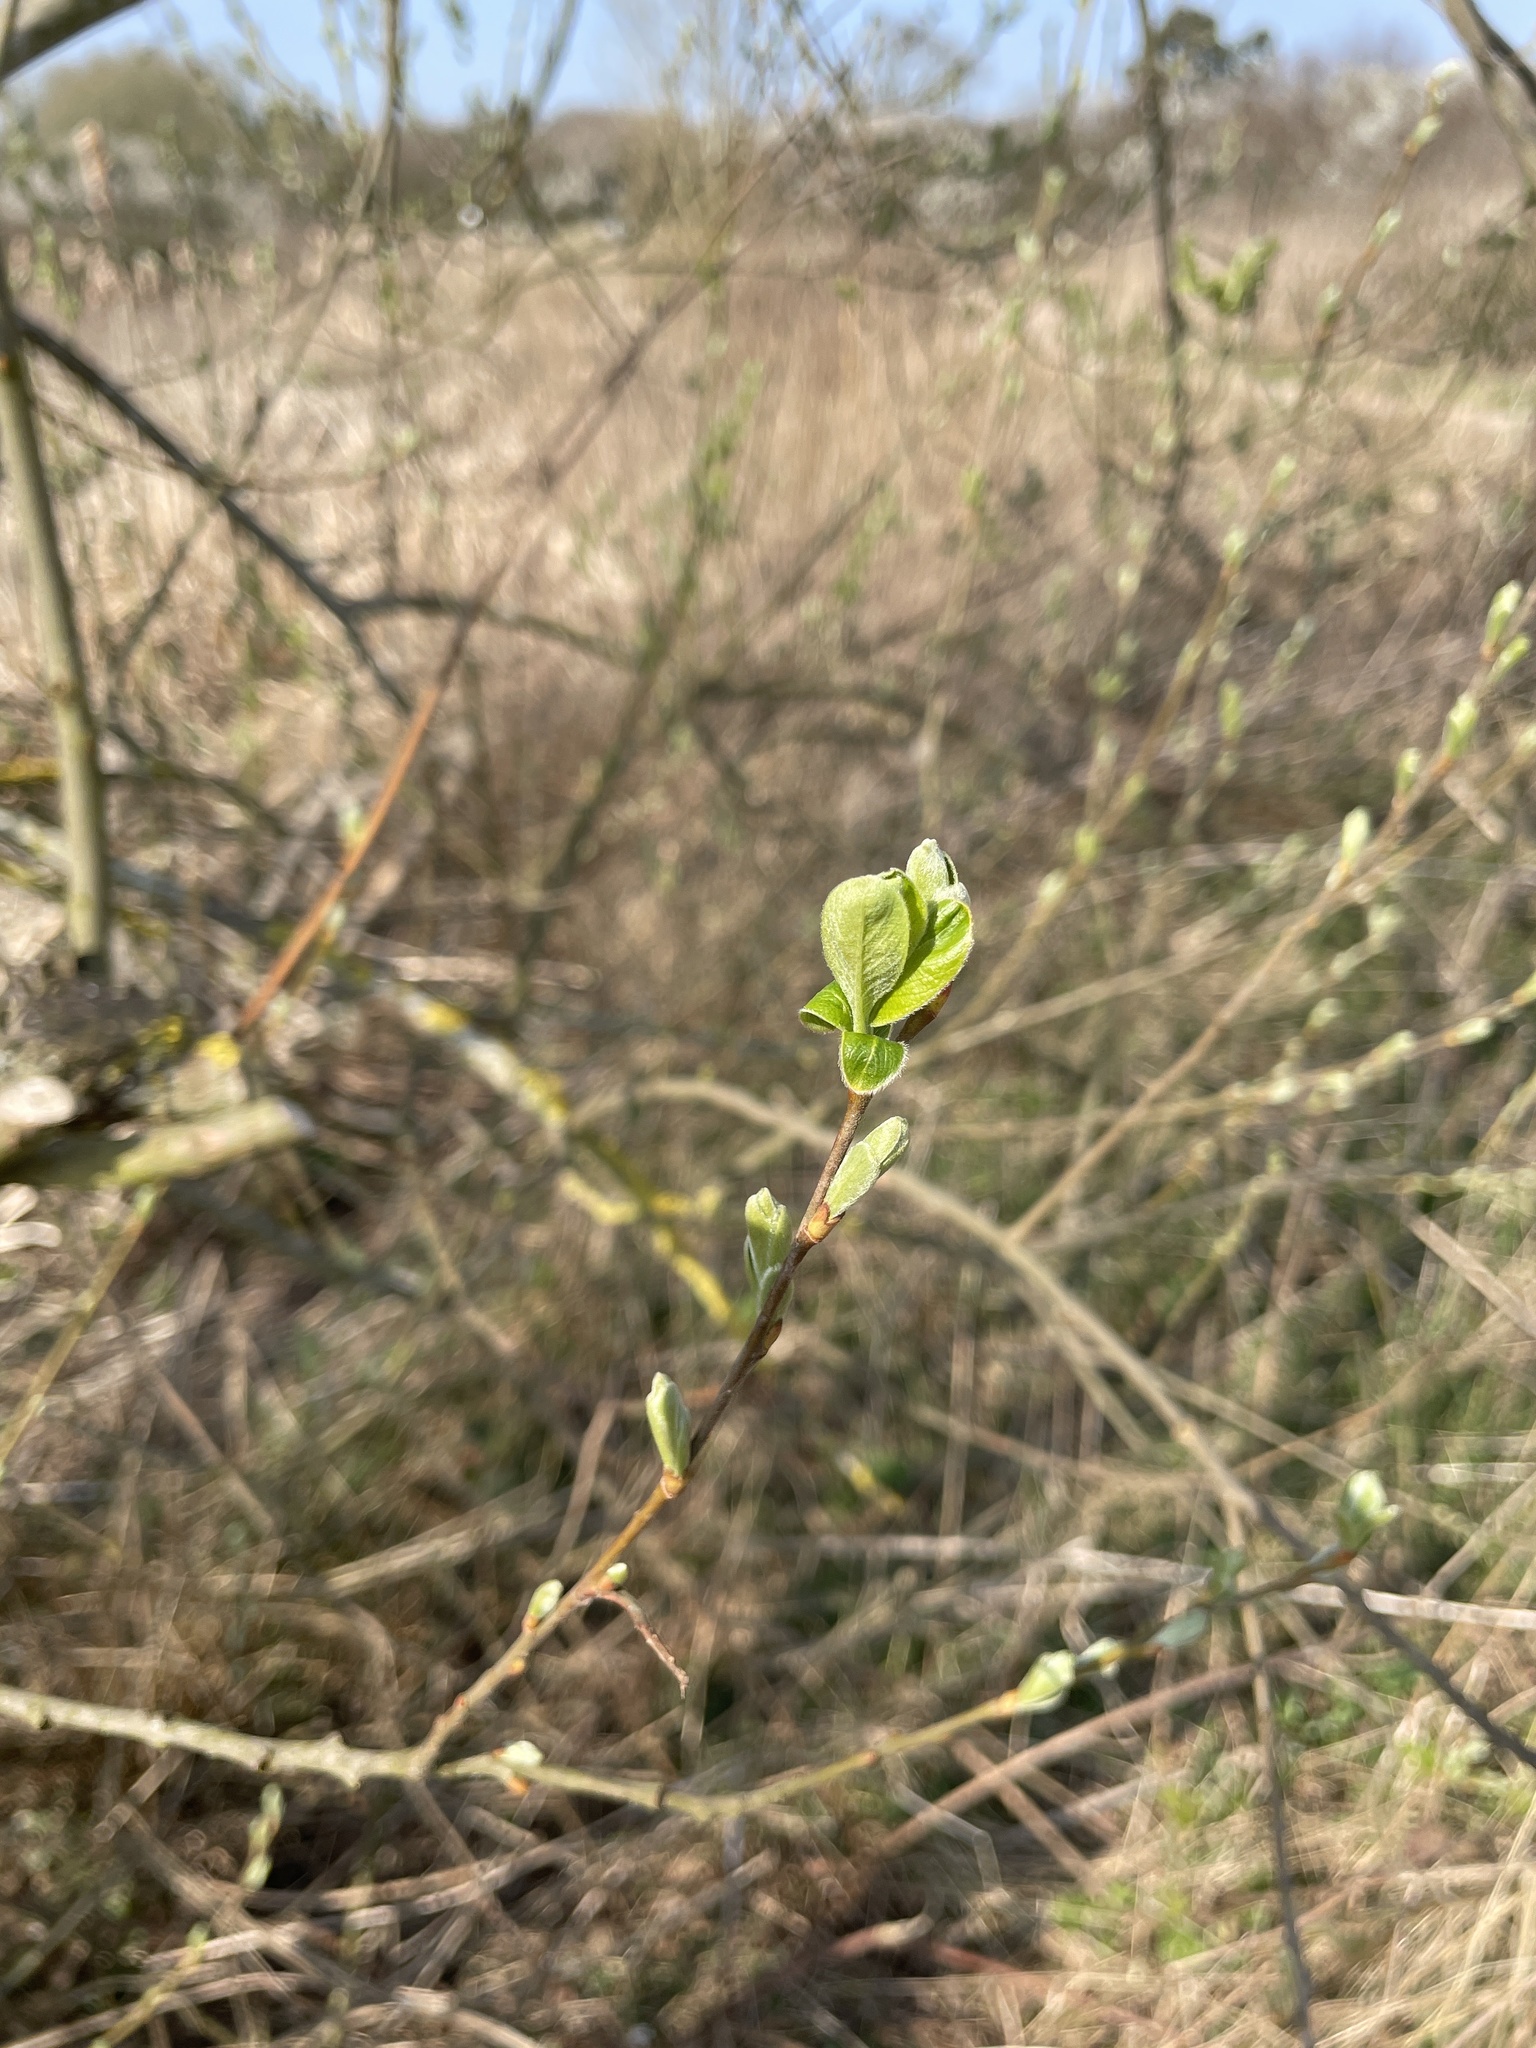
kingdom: Plantae
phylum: Tracheophyta
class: Magnoliopsida
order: Malpighiales
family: Salicaceae
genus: Salix
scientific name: Salix caprea
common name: Goat willow
